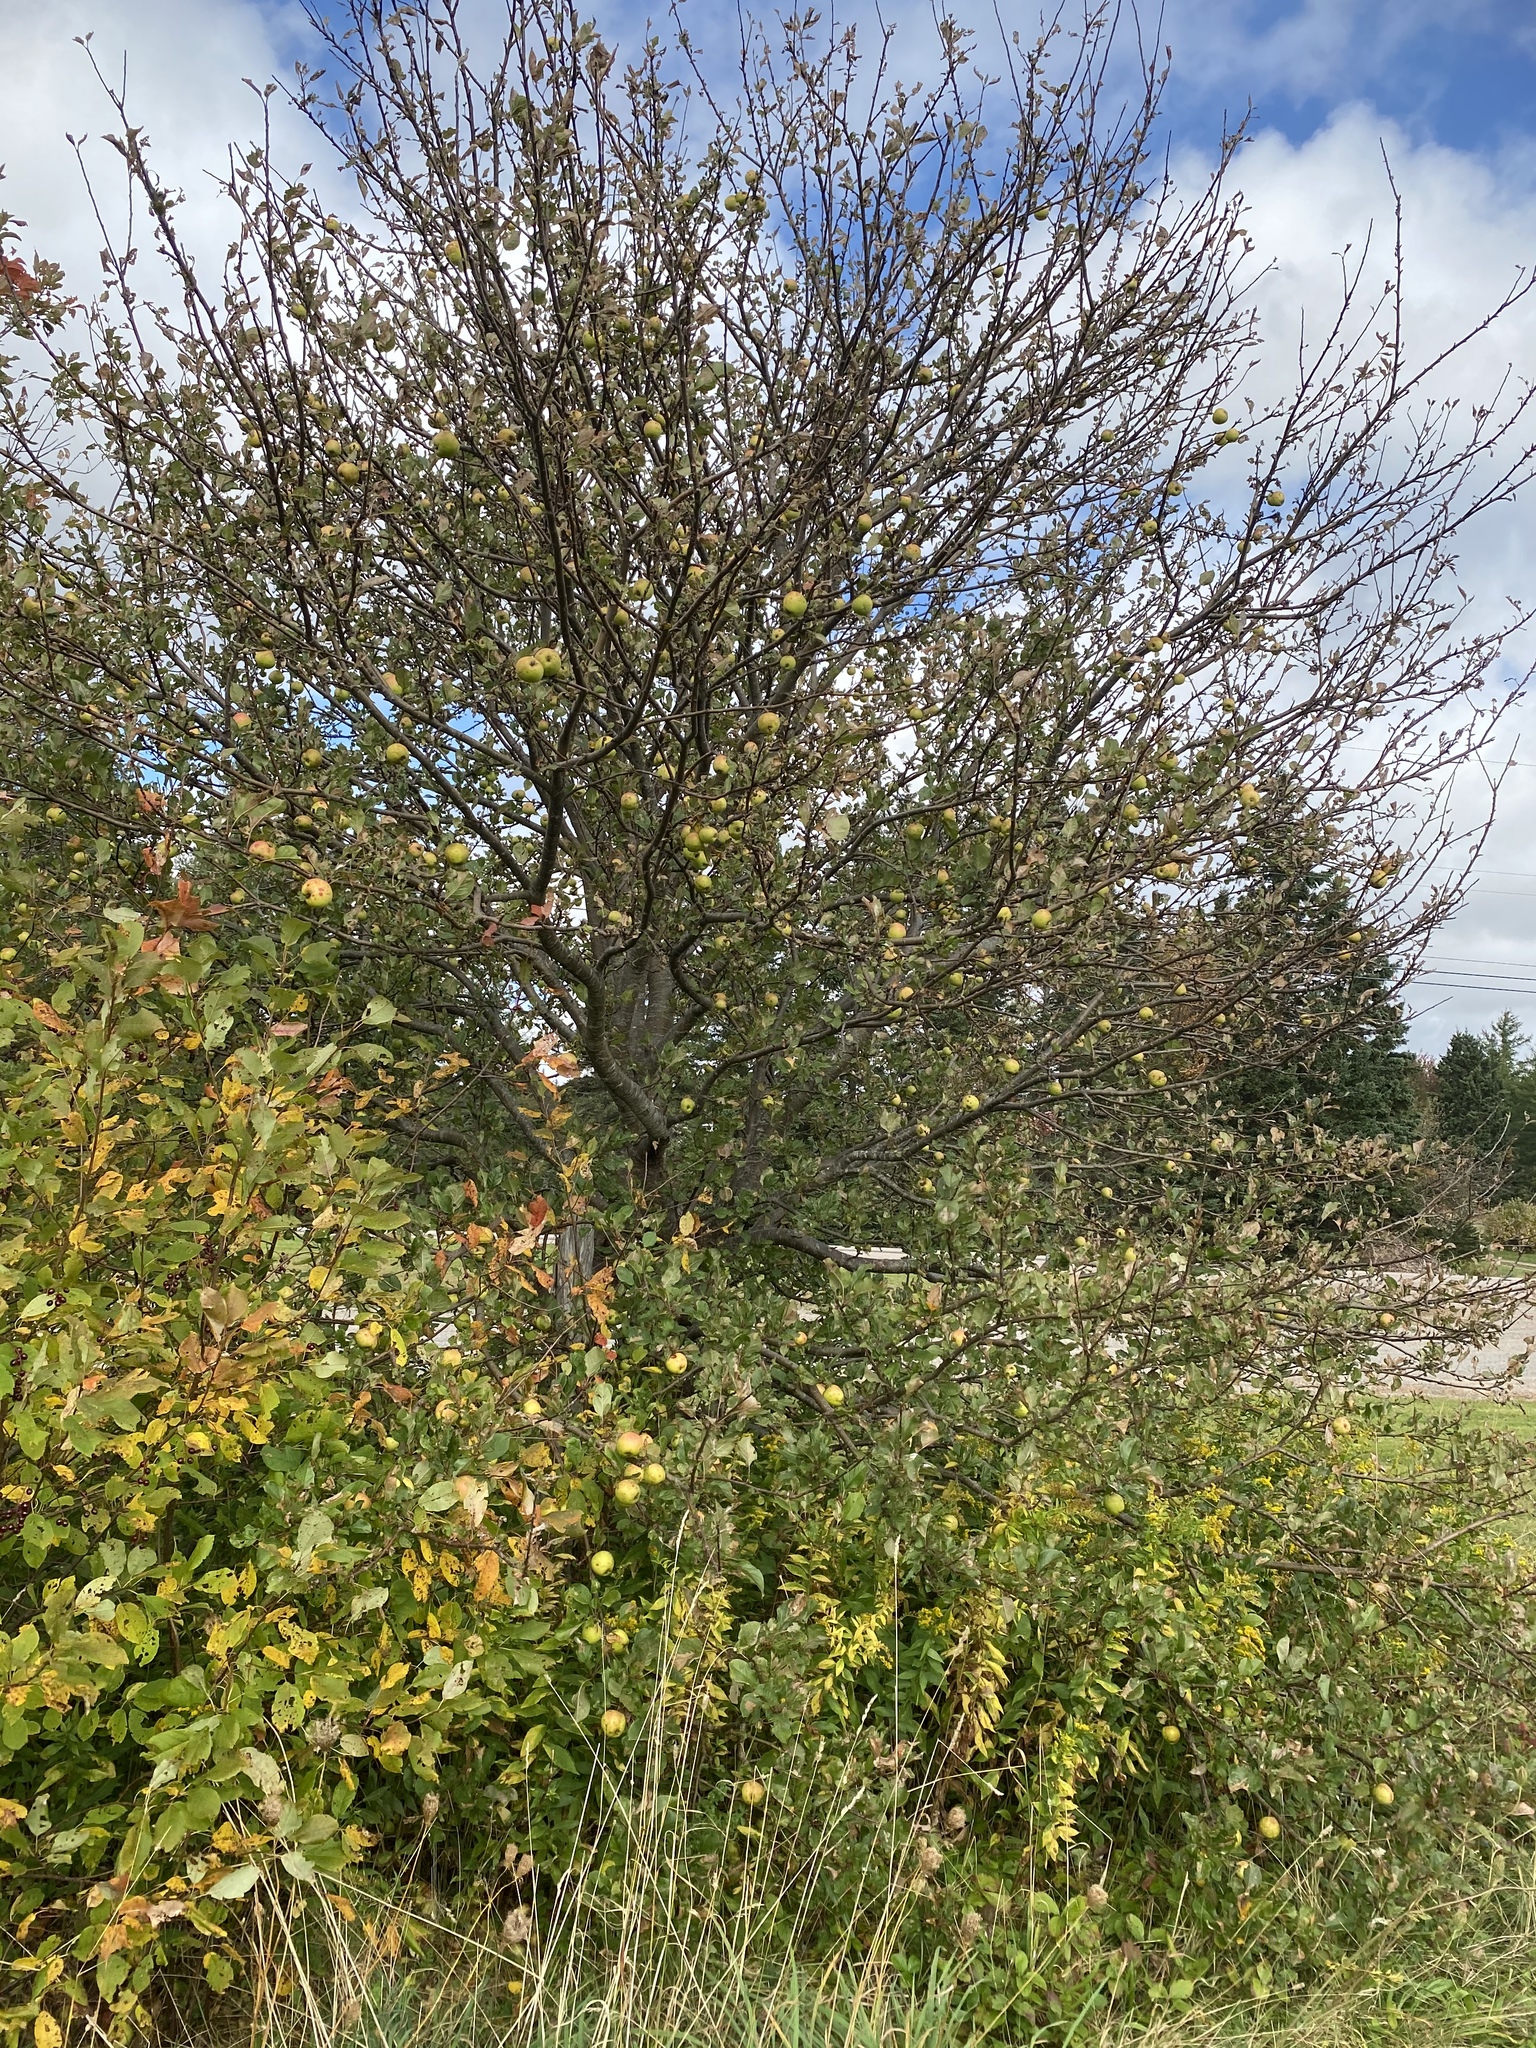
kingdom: Plantae
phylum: Tracheophyta
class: Magnoliopsida
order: Rosales
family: Rosaceae
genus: Malus
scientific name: Malus domestica
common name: Apple
